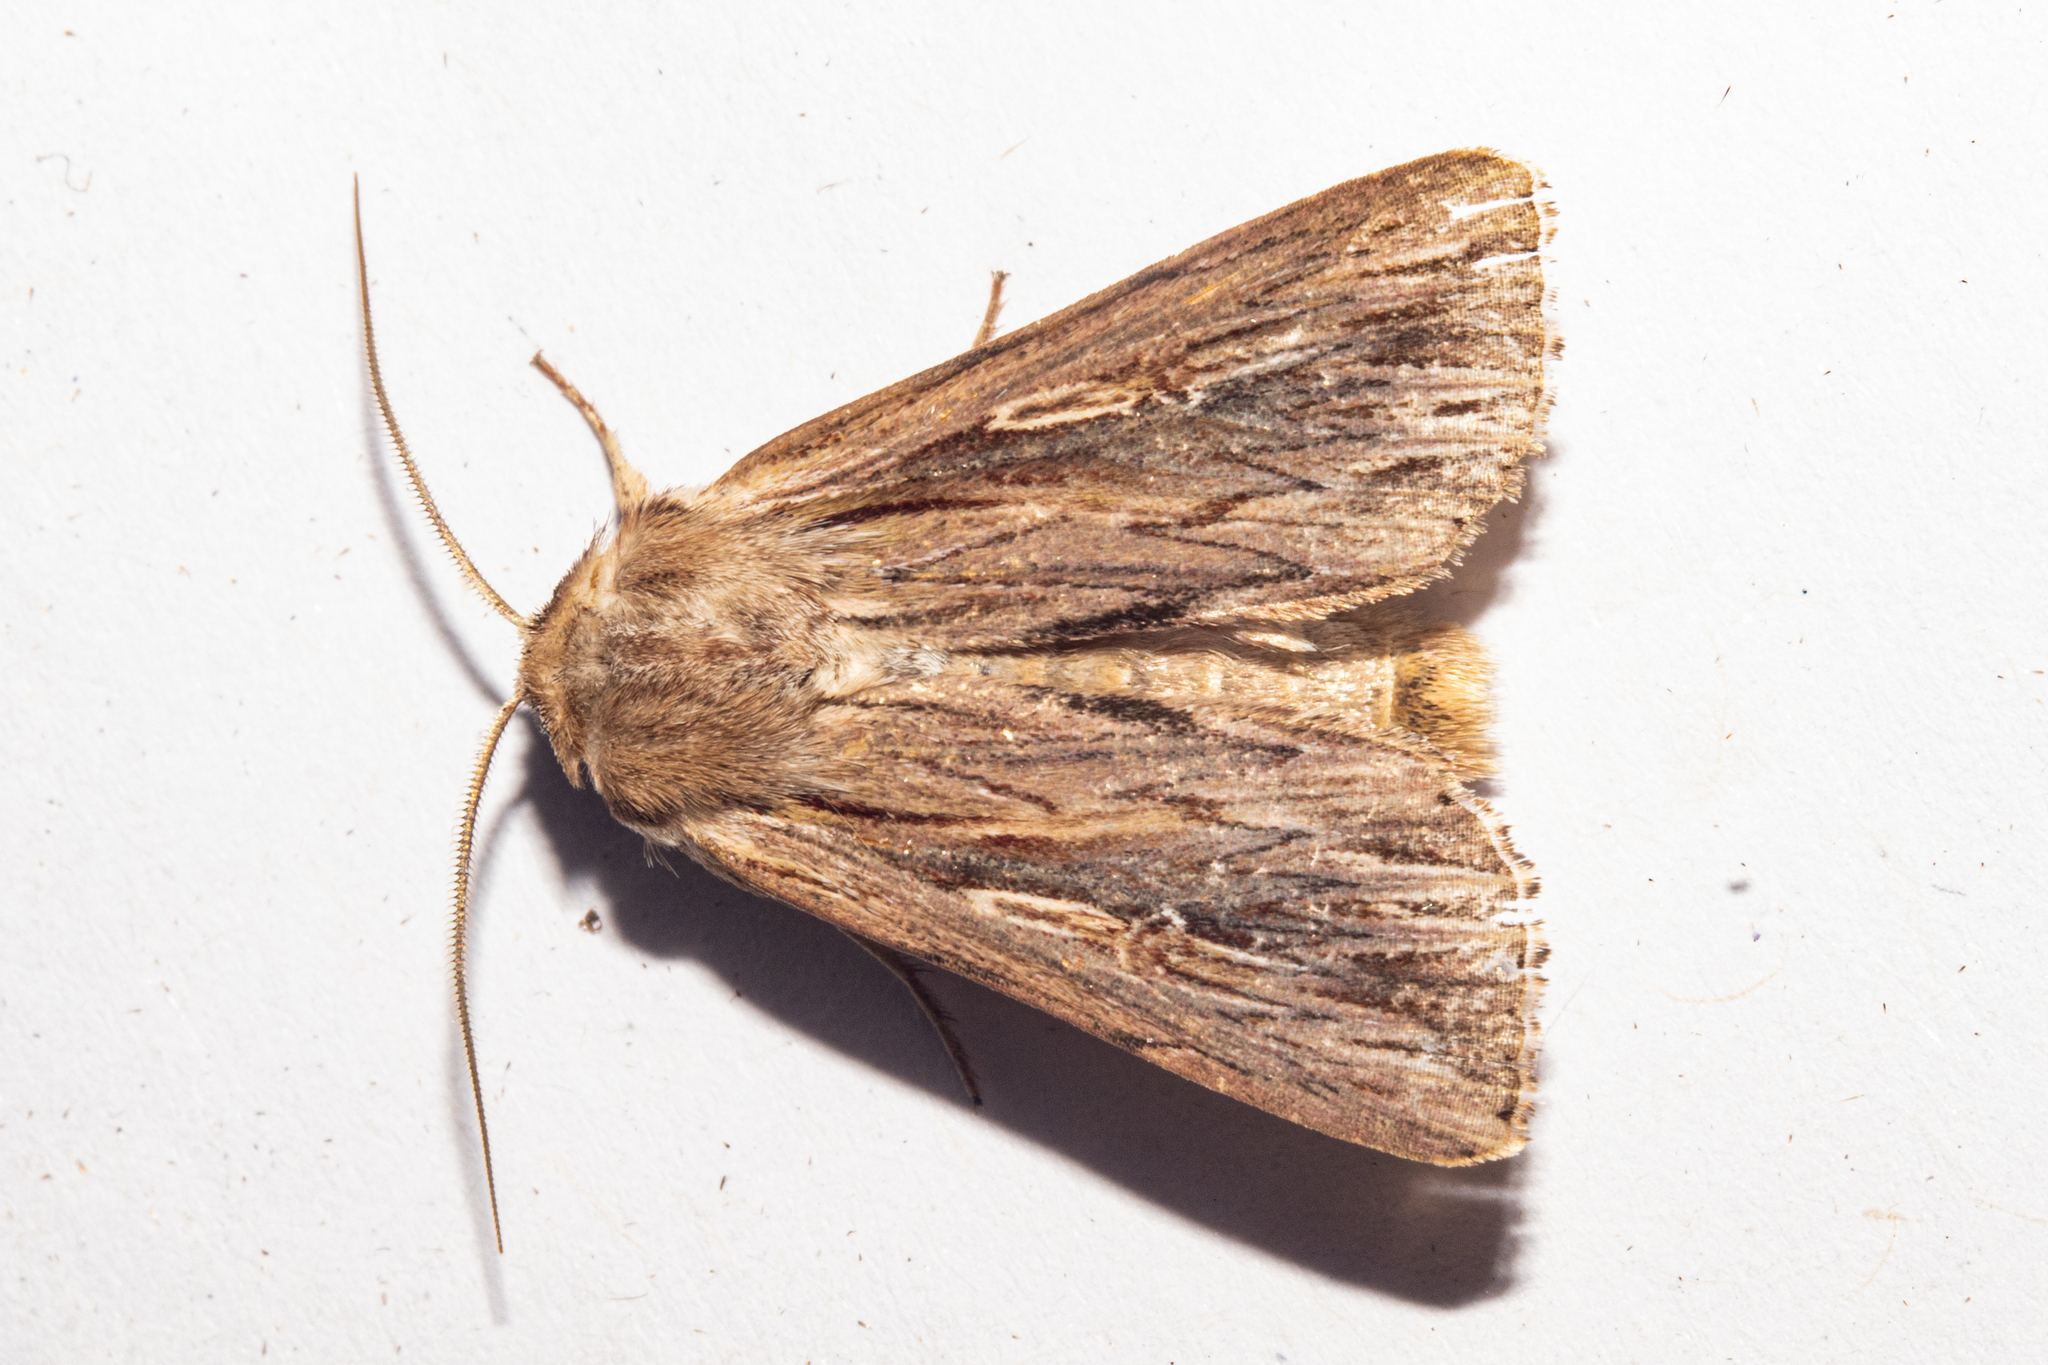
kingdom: Animalia
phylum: Arthropoda
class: Insecta
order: Lepidoptera
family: Noctuidae
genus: Persectania
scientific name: Persectania aversa
